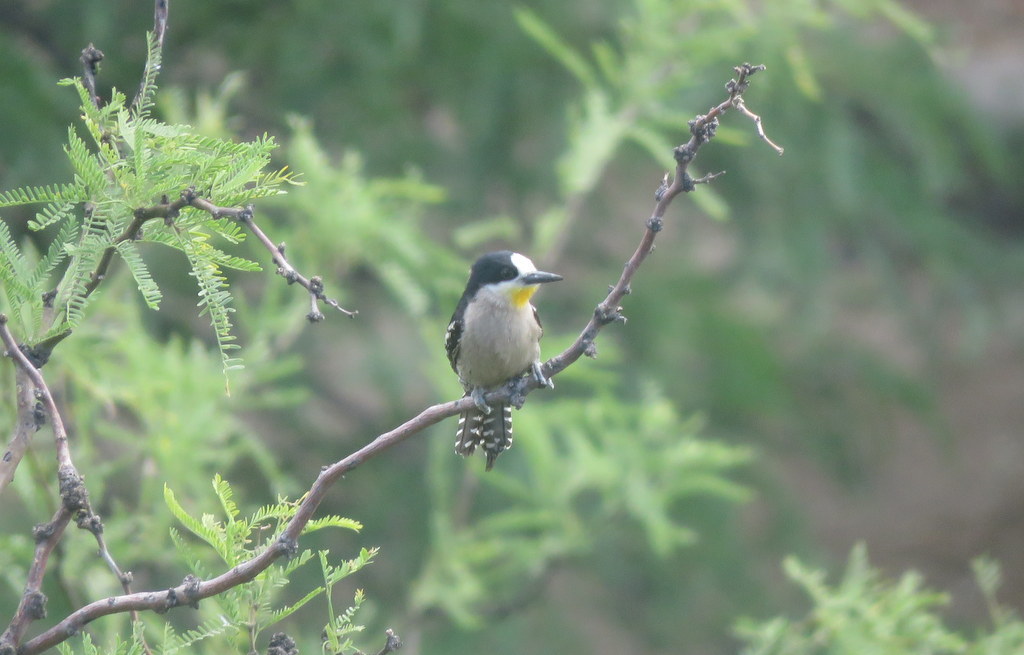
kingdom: Animalia
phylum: Chordata
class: Aves
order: Piciformes
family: Picidae
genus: Melanerpes
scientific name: Melanerpes cactorum
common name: White-fronted woodpecker
